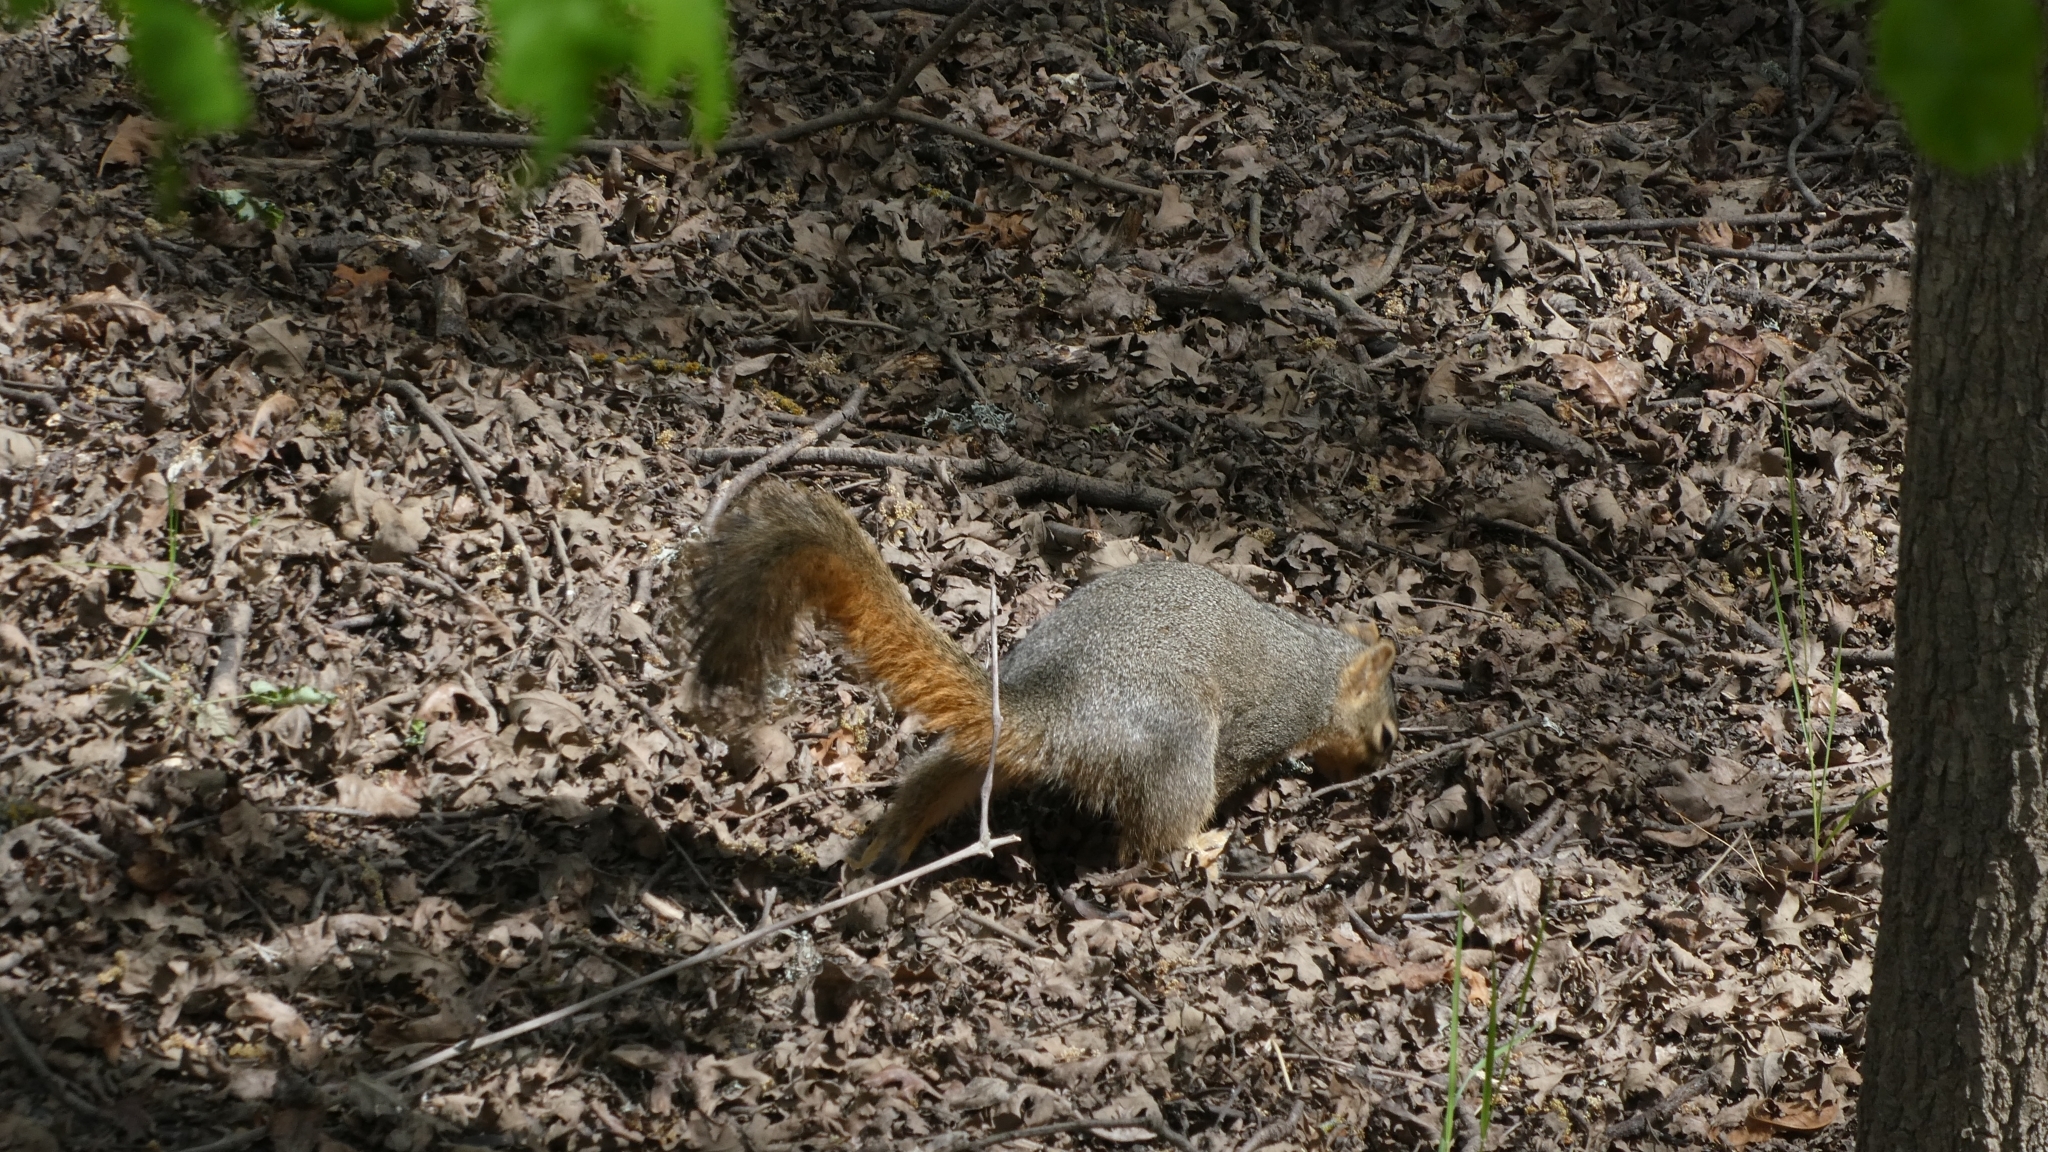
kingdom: Animalia
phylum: Chordata
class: Mammalia
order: Rodentia
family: Sciuridae
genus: Sciurus
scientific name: Sciurus niger
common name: Fox squirrel
